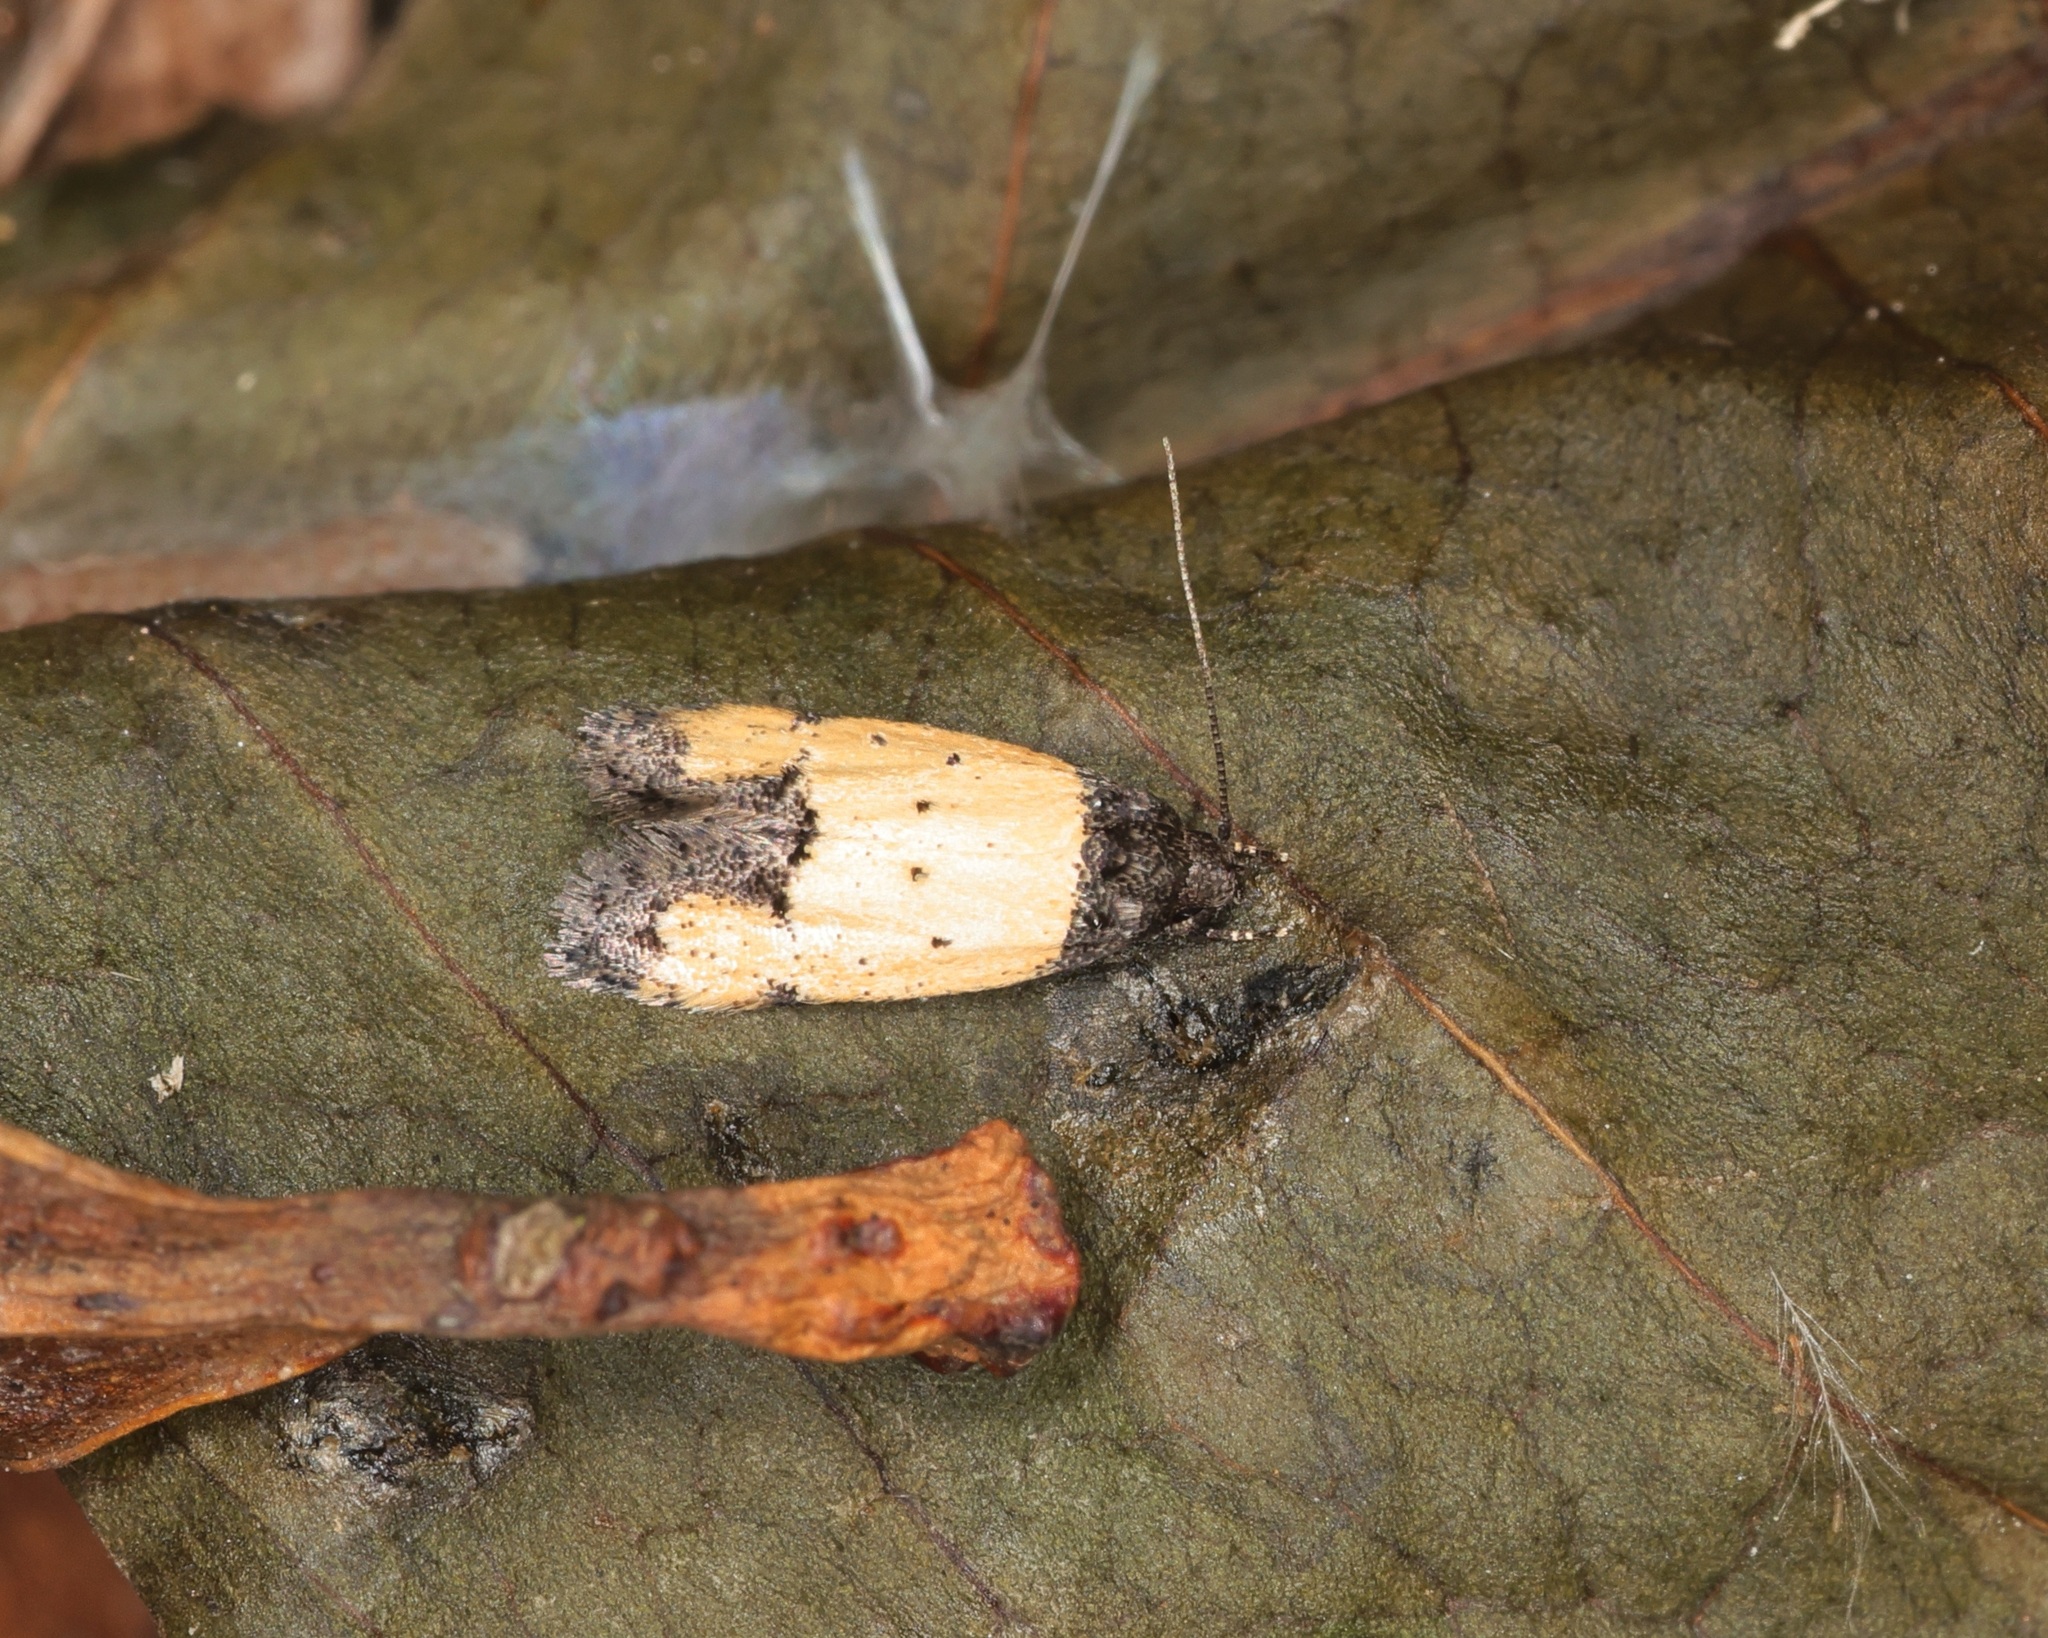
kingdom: Animalia
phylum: Arthropoda
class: Insecta
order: Lepidoptera
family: Oecophoridae
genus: Tyrolimnas
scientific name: Tyrolimnas anthraconesa
